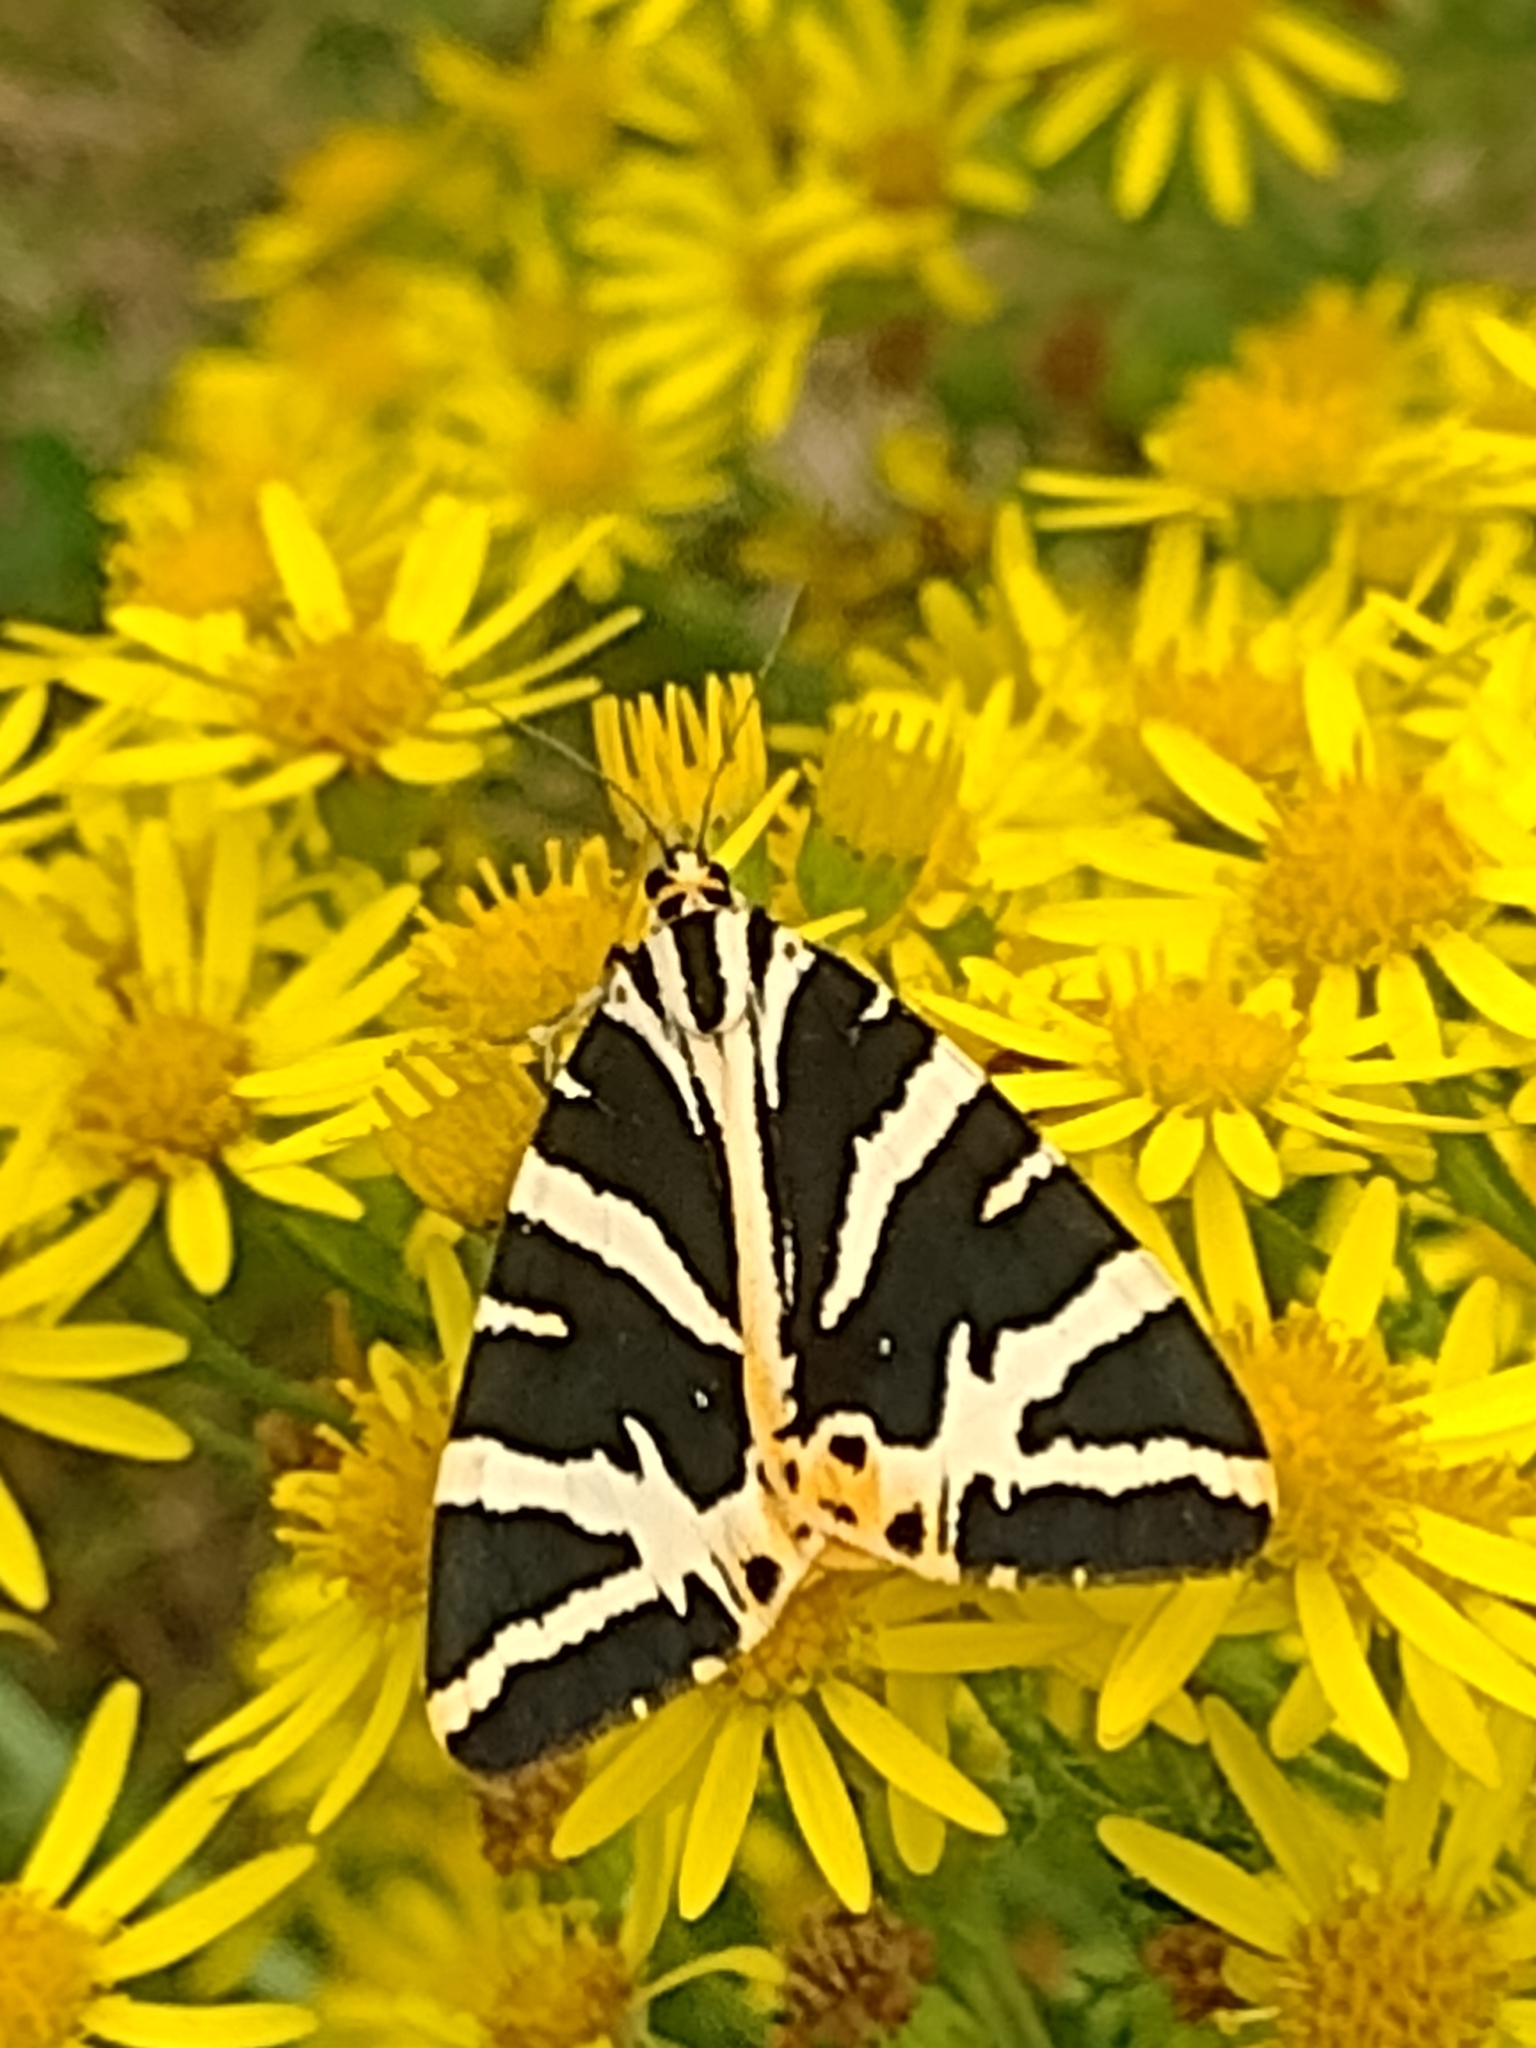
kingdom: Animalia
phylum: Arthropoda
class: Insecta
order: Lepidoptera
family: Erebidae
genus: Euplagia
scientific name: Euplagia quadripunctaria
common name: Jersey tiger
